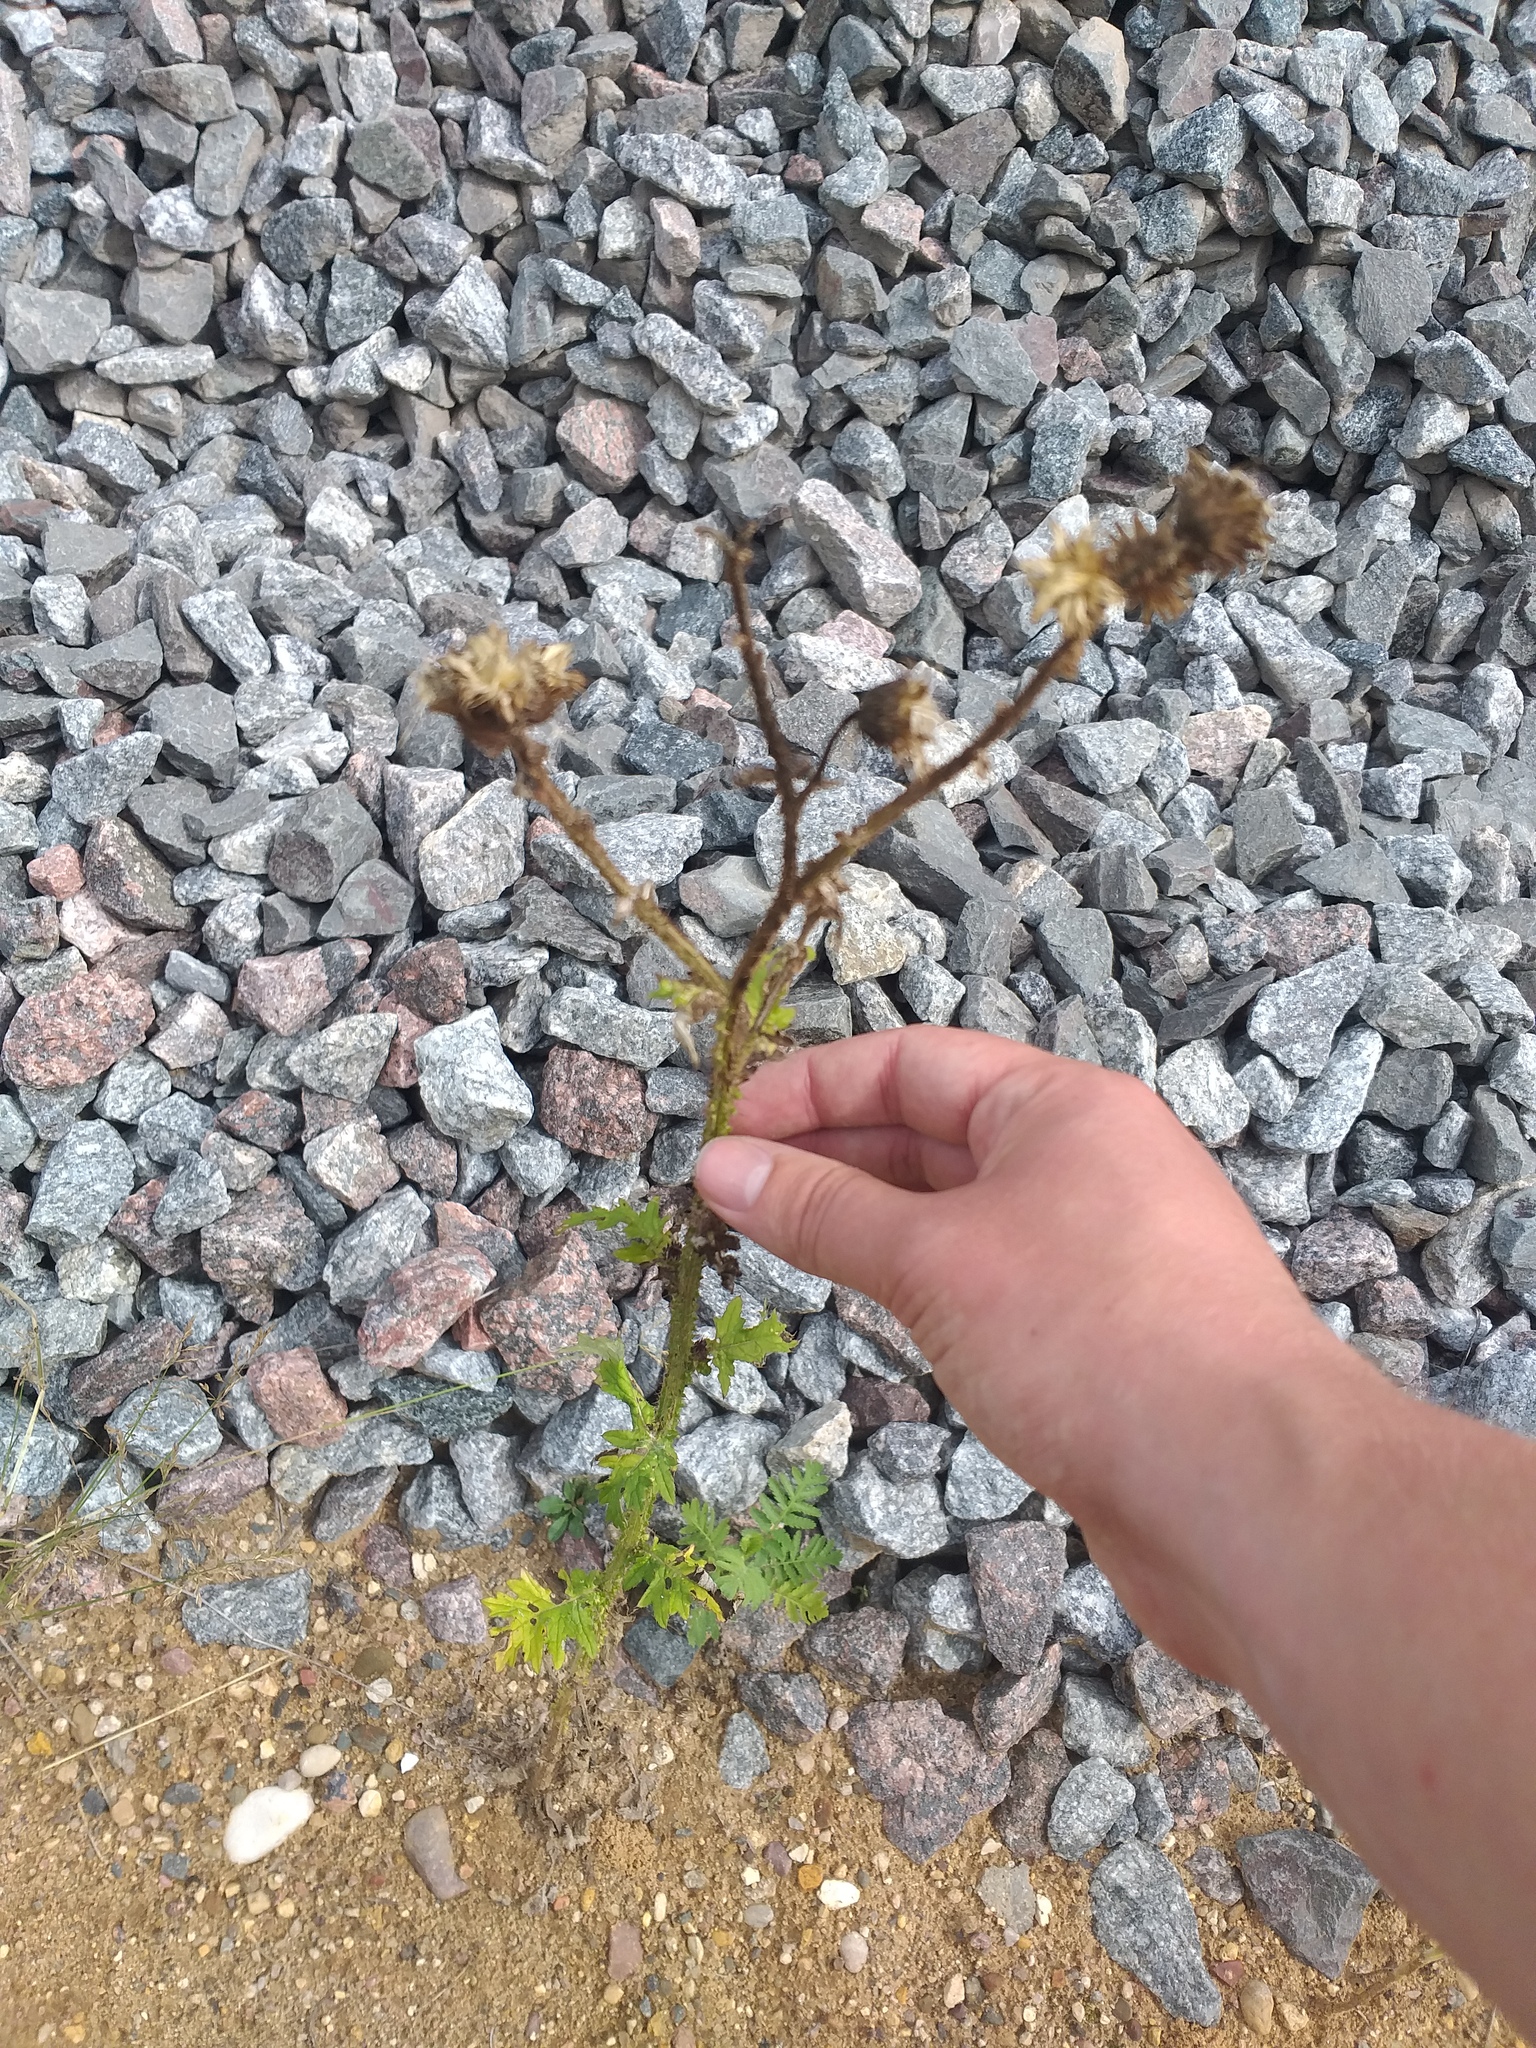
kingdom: Plantae
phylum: Tracheophyta
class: Magnoliopsida
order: Asterales
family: Asteraceae
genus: Carduus
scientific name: Carduus crispus
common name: Welted thistle
